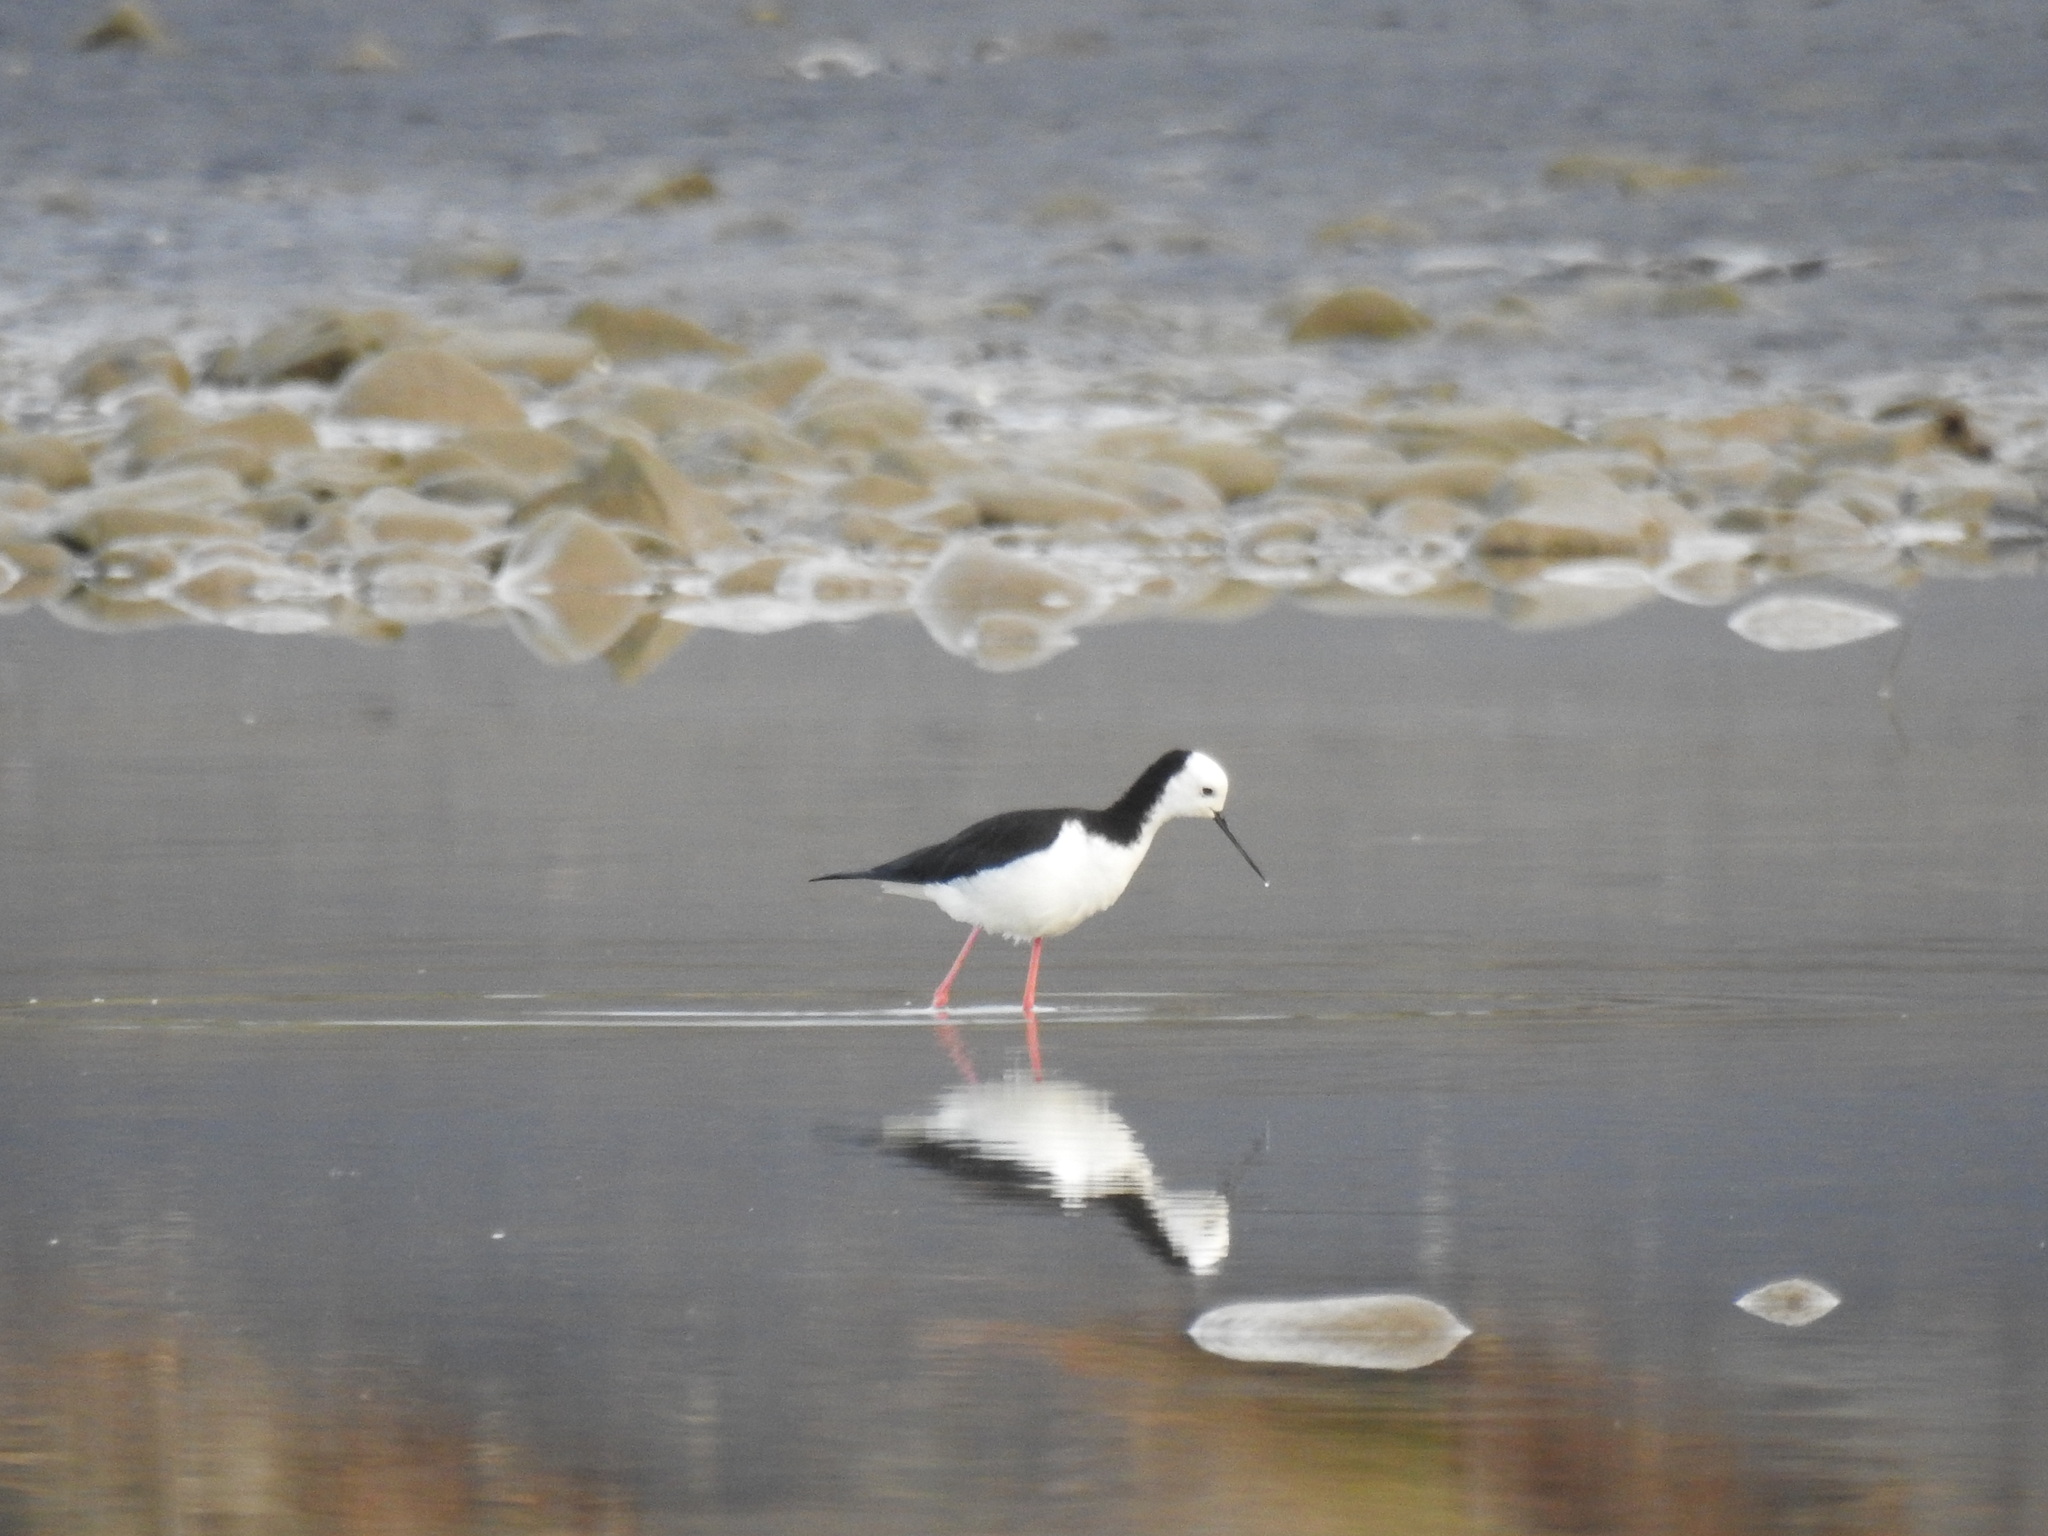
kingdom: Animalia
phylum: Chordata
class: Aves
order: Charadriiformes
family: Recurvirostridae
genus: Himantopus
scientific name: Himantopus leucocephalus
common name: White-headed stilt
